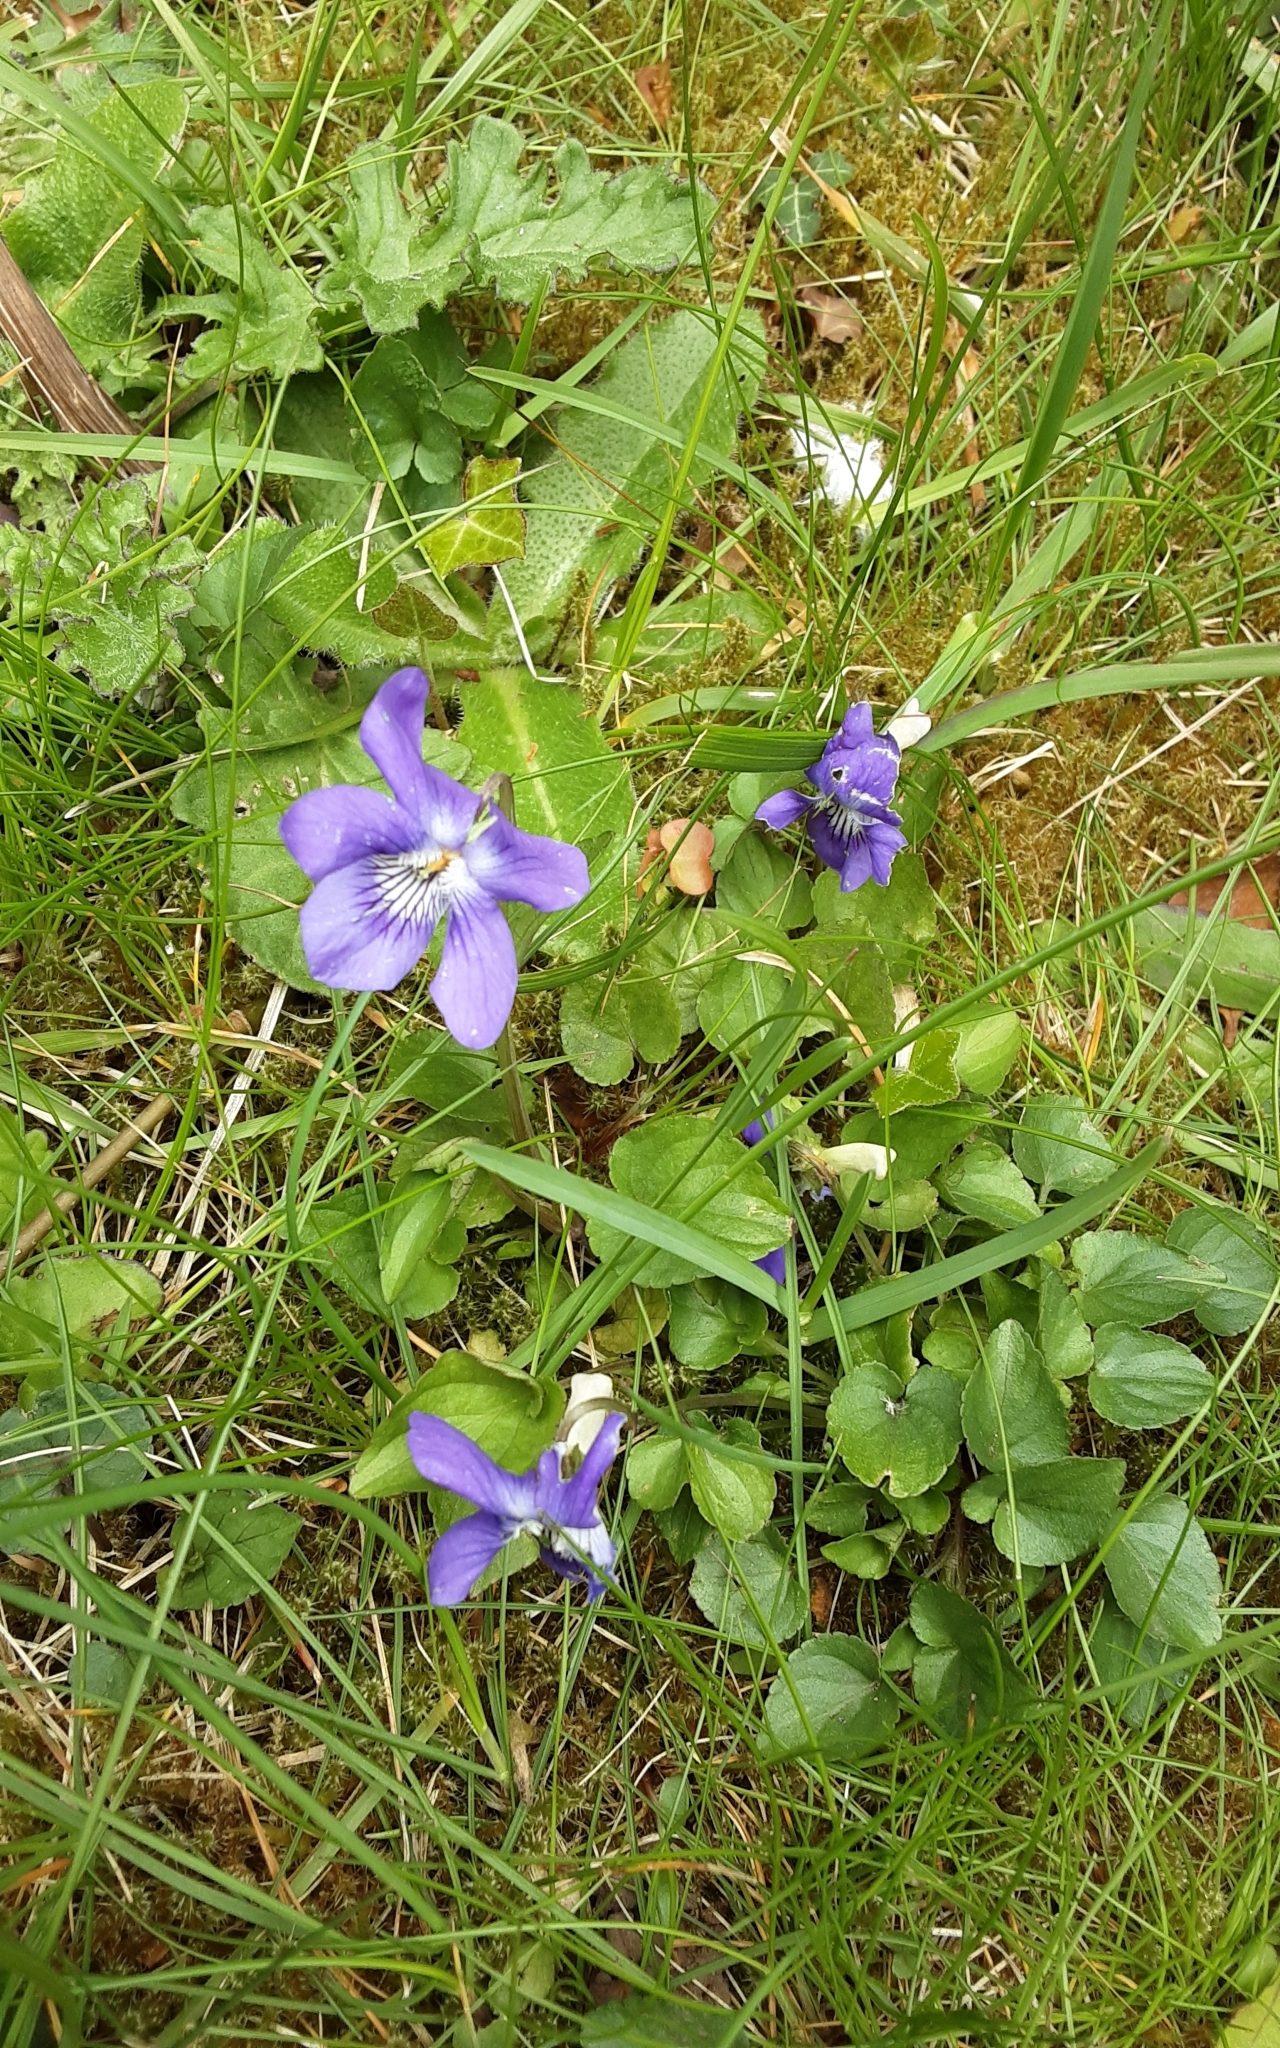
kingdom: Plantae
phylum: Tracheophyta
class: Magnoliopsida
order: Malpighiales
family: Violaceae
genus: Viola
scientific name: Viola riviniana
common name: Common dog-violet
